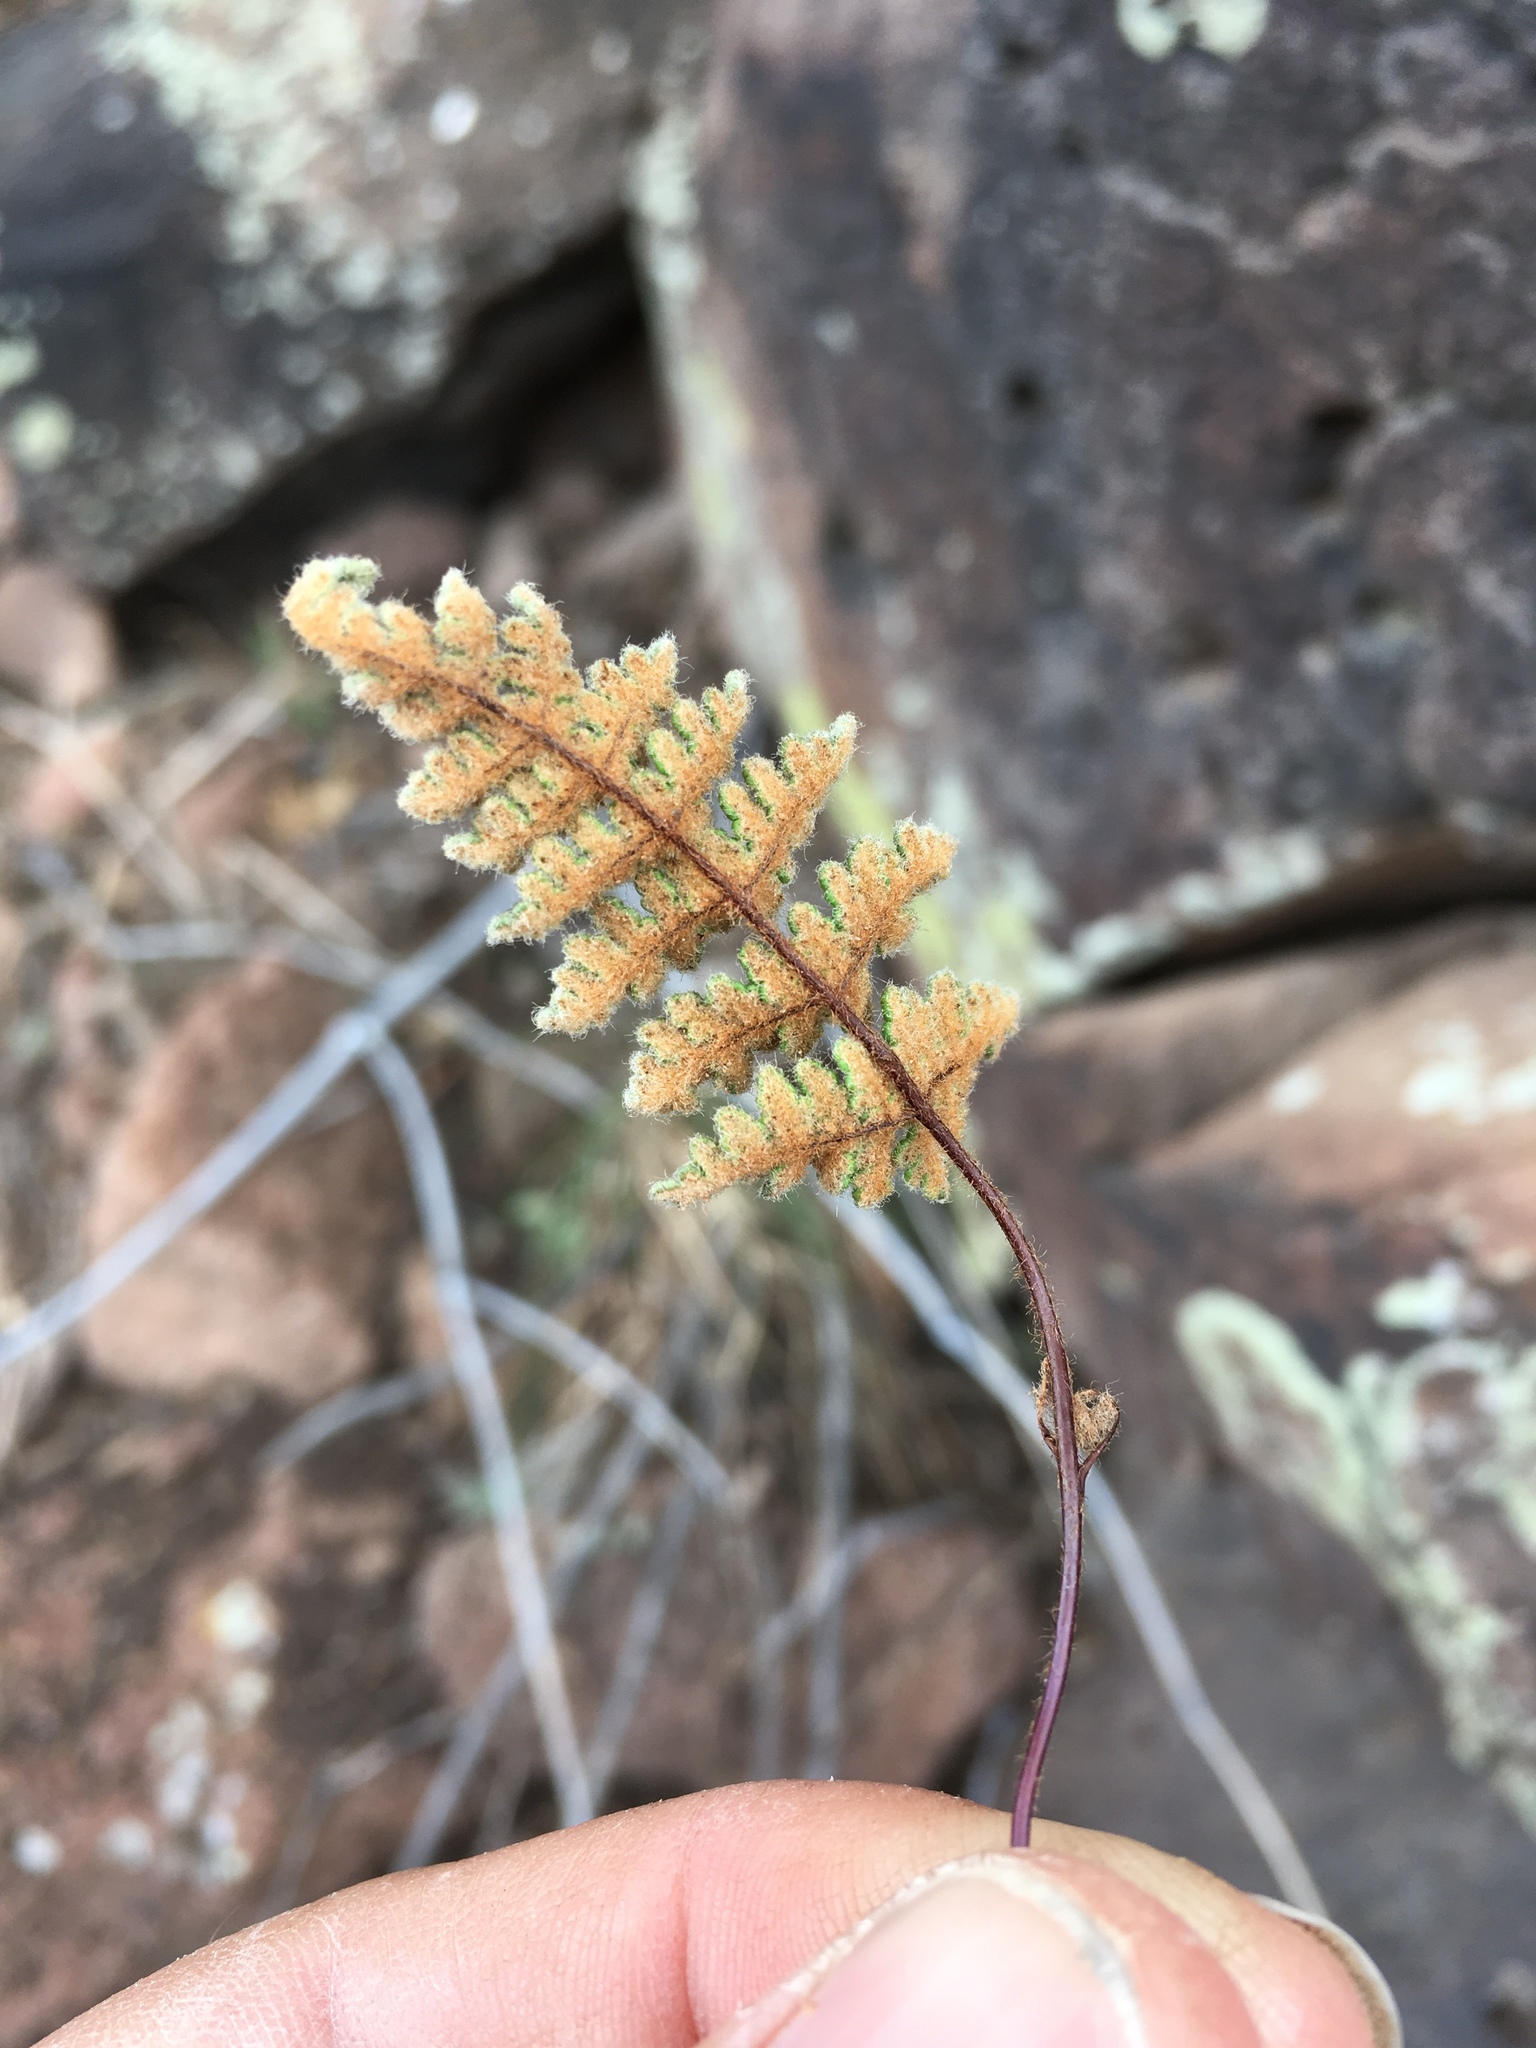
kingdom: Plantae
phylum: Tracheophyta
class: Polypodiopsida
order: Polypodiales
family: Pteridaceae
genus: Myriopteris
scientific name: Myriopteris gracilis
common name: Fee's lip fern
